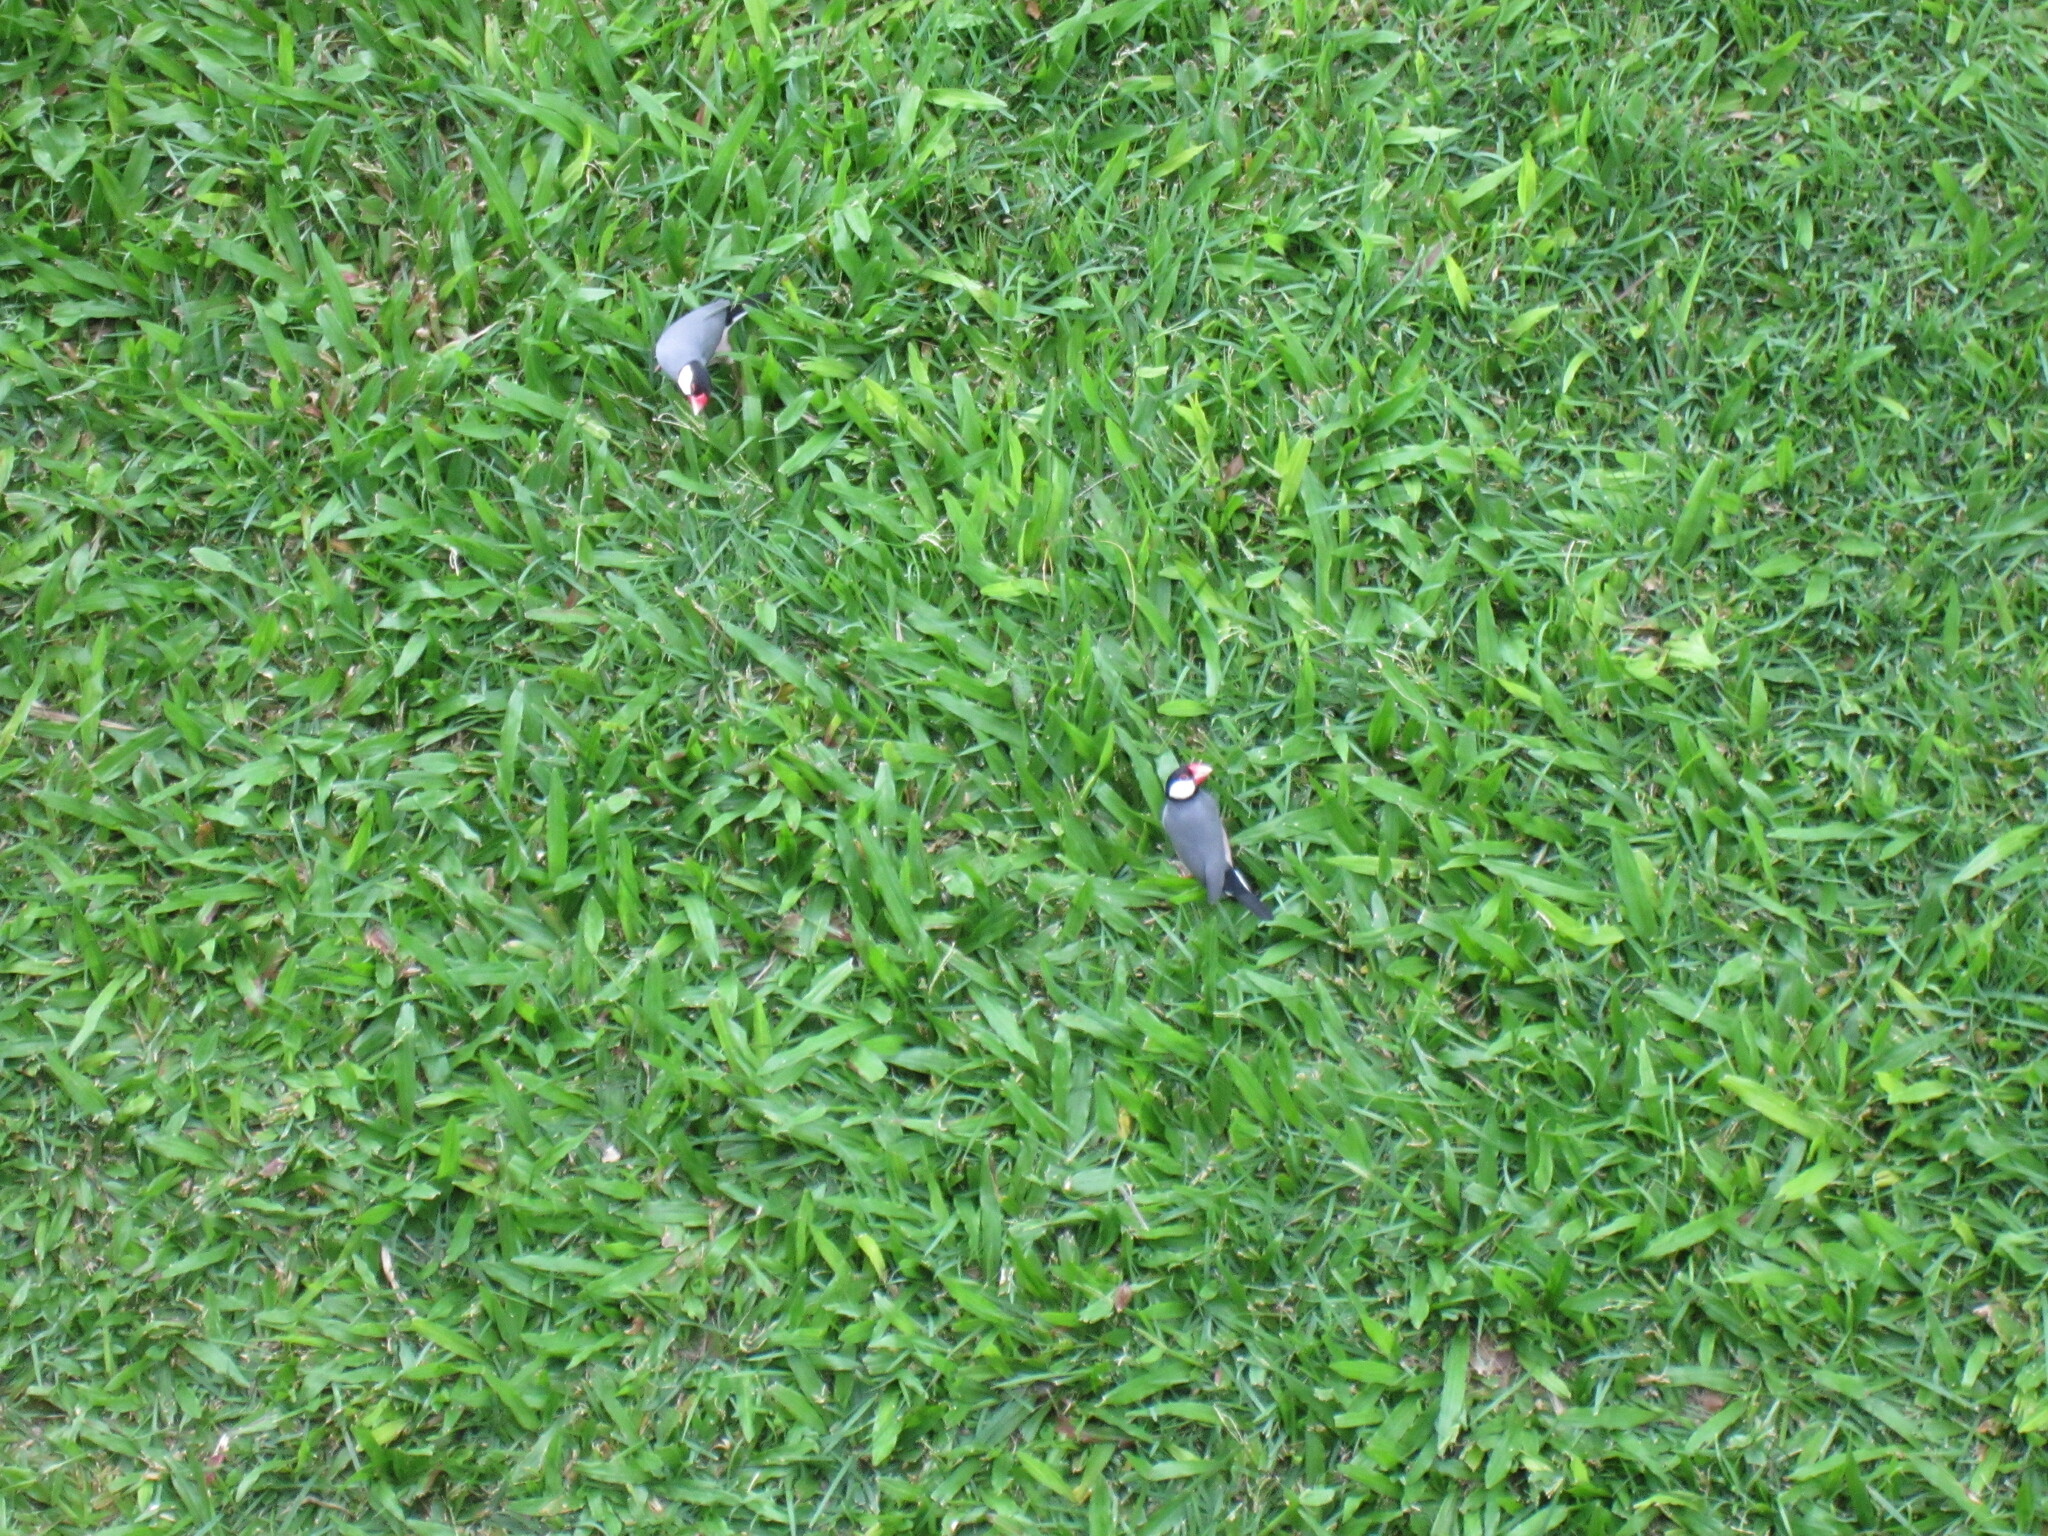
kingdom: Animalia
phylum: Chordata
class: Aves
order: Passeriformes
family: Estrildidae
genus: Lonchura
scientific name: Lonchura oryzivora
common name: Java sparrow
